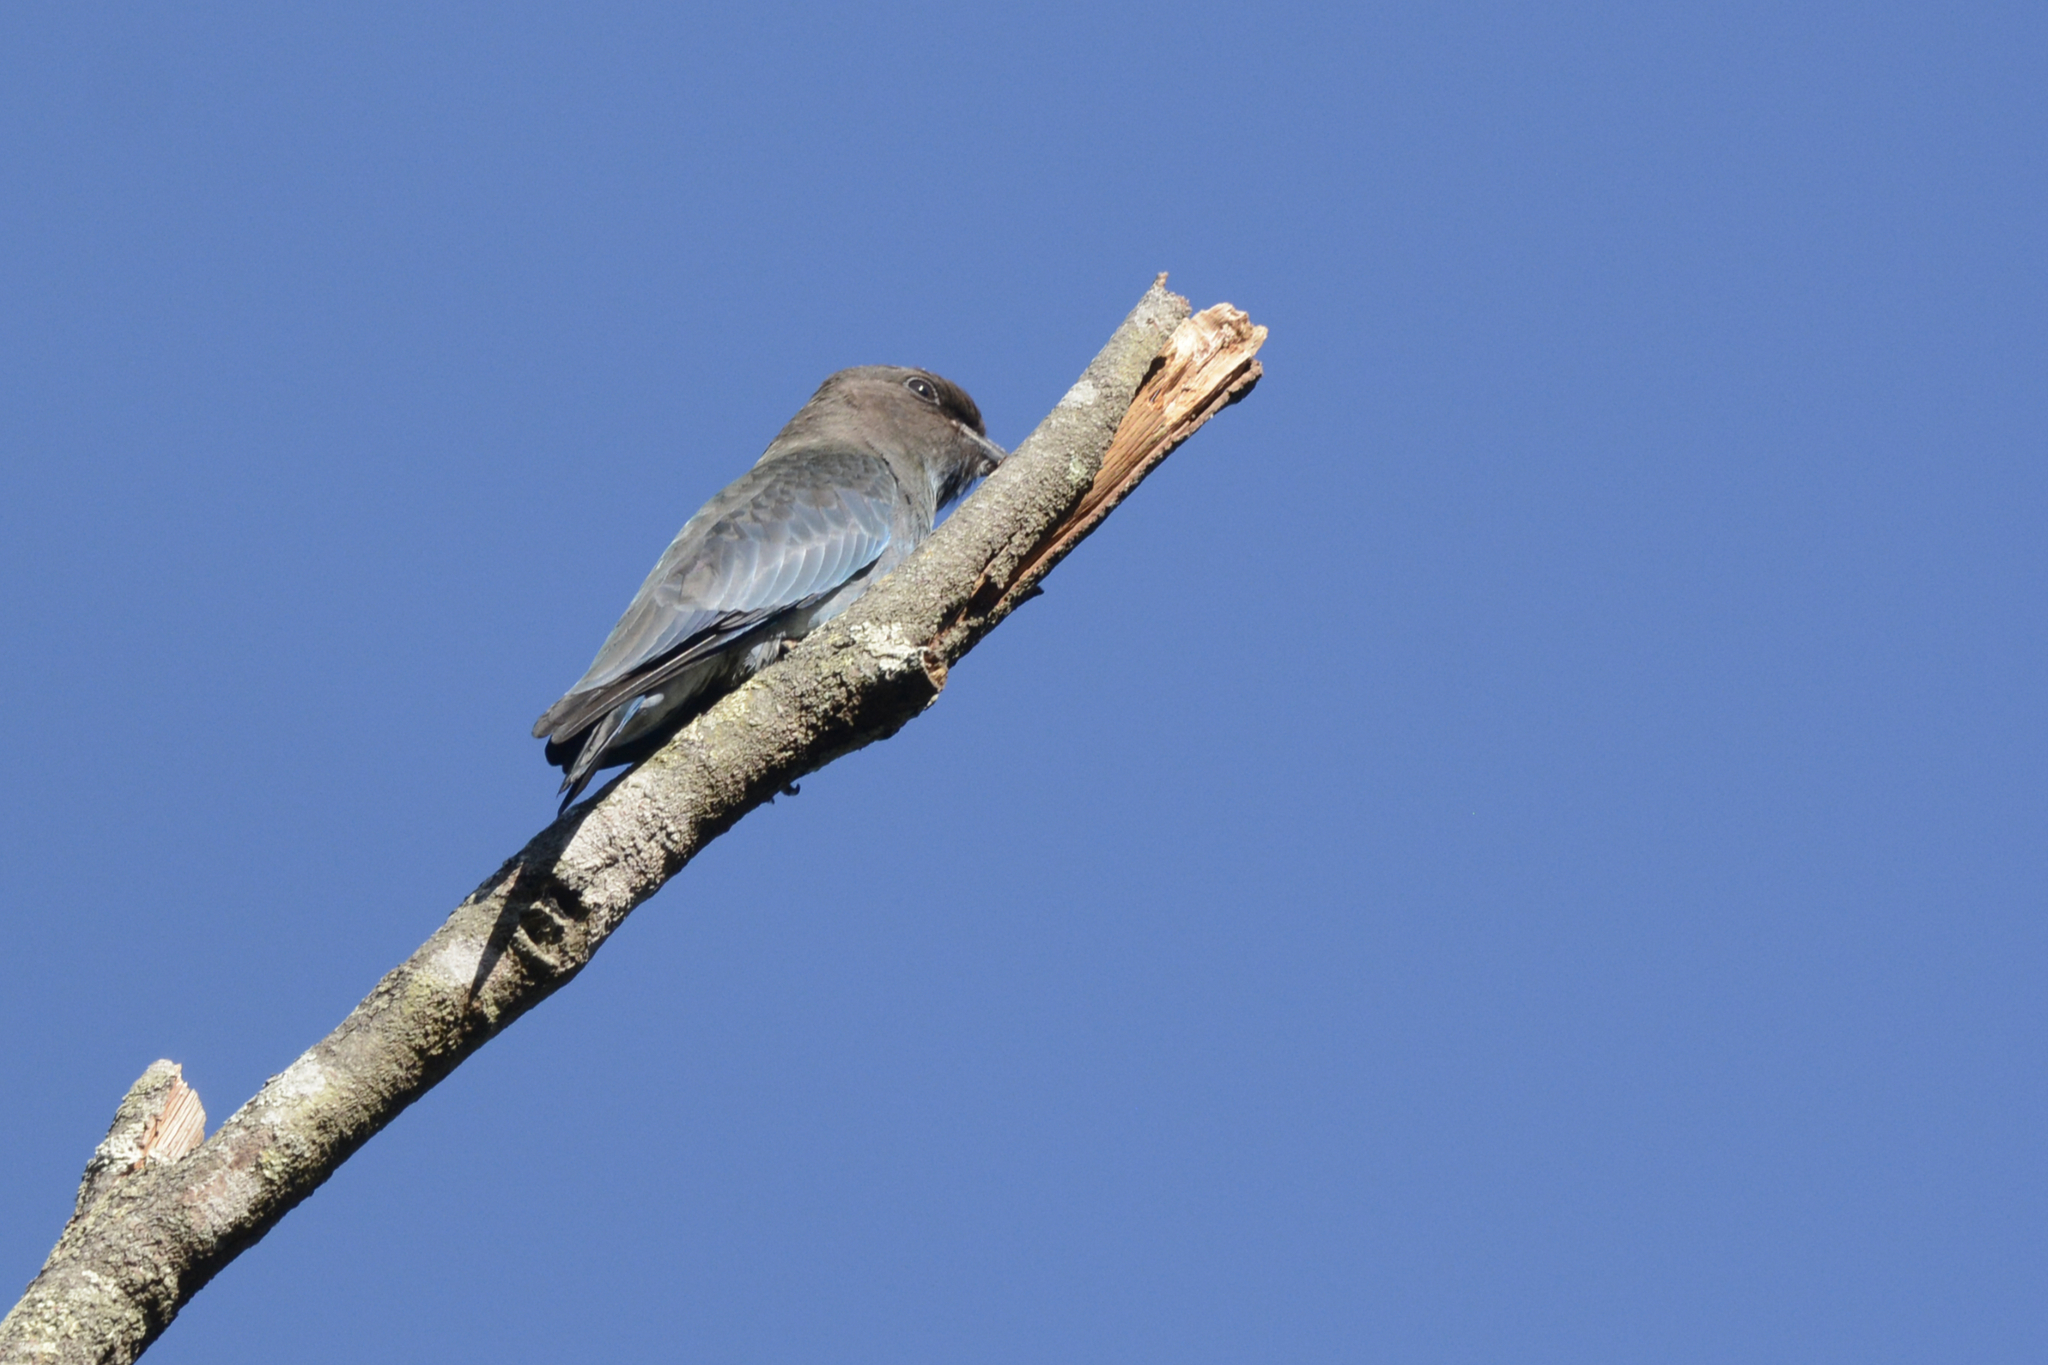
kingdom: Animalia
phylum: Chordata
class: Aves
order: Coraciiformes
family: Coraciidae
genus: Eurystomus
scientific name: Eurystomus orientalis
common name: Oriental dollarbird
